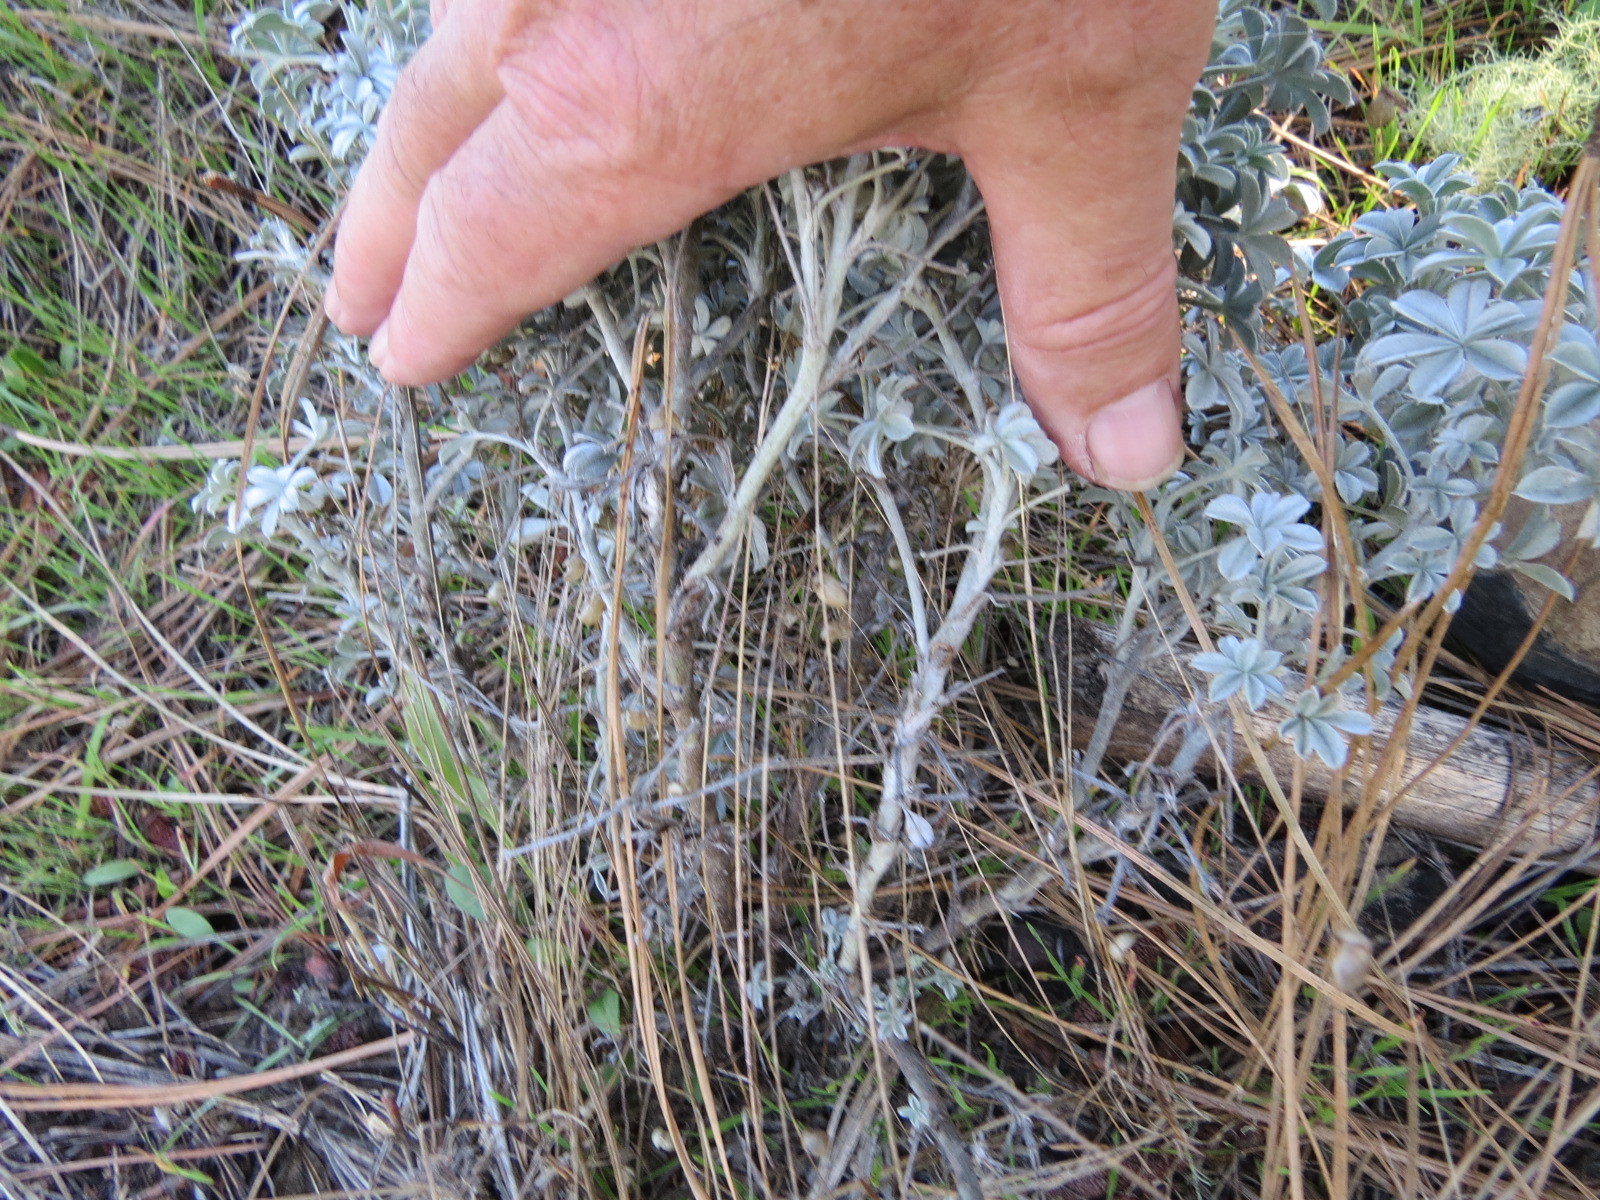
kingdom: Plantae
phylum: Tracheophyta
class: Magnoliopsida
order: Fabales
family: Fabaceae
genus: Lupinus
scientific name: Lupinus albifrons
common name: Foothill lupine
